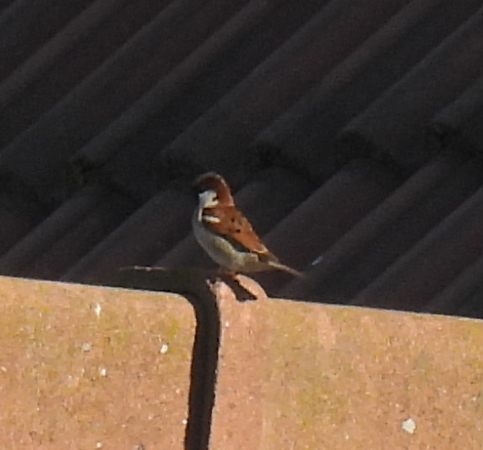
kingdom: Animalia
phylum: Chordata
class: Aves
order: Passeriformes
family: Passeridae
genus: Passer
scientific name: Passer domesticus
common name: House sparrow
